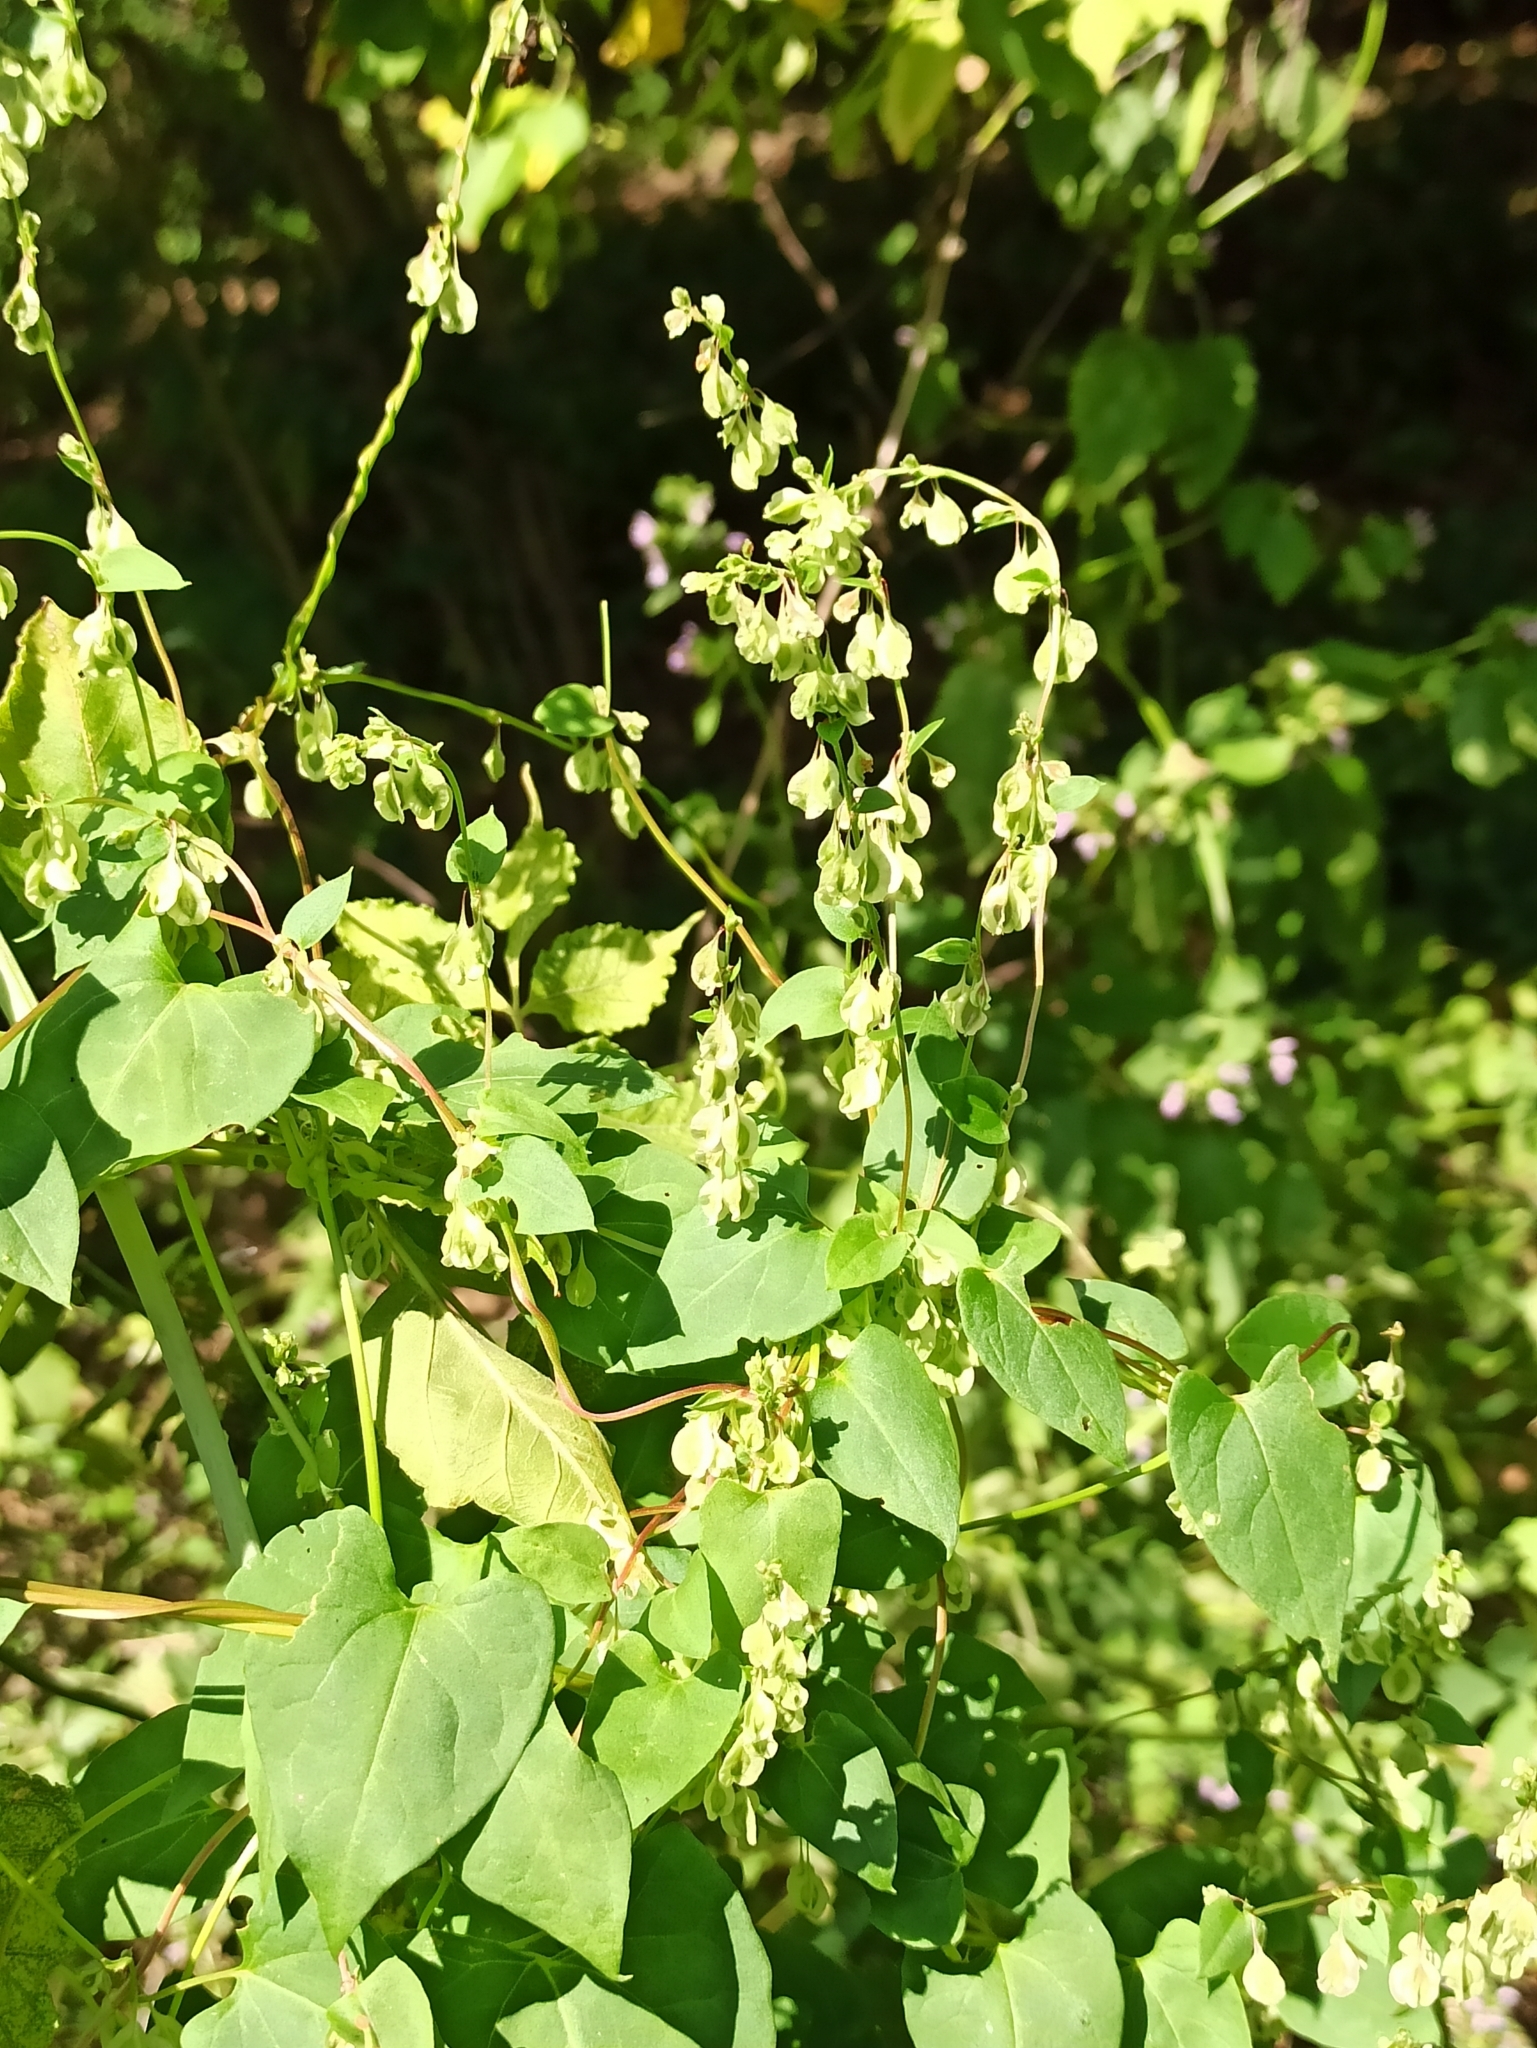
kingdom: Plantae
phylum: Tracheophyta
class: Magnoliopsida
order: Caryophyllales
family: Polygonaceae
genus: Fallopia
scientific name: Fallopia dumetorum
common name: Copse-bindweed
